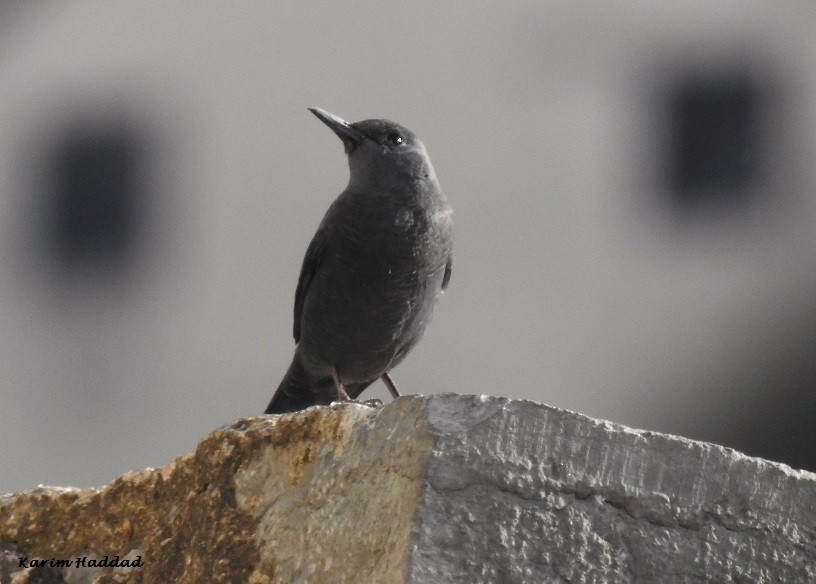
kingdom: Animalia
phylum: Chordata
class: Aves
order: Passeriformes
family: Muscicapidae
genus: Monticola
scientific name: Monticola solitarius
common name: Blue rock thrush
